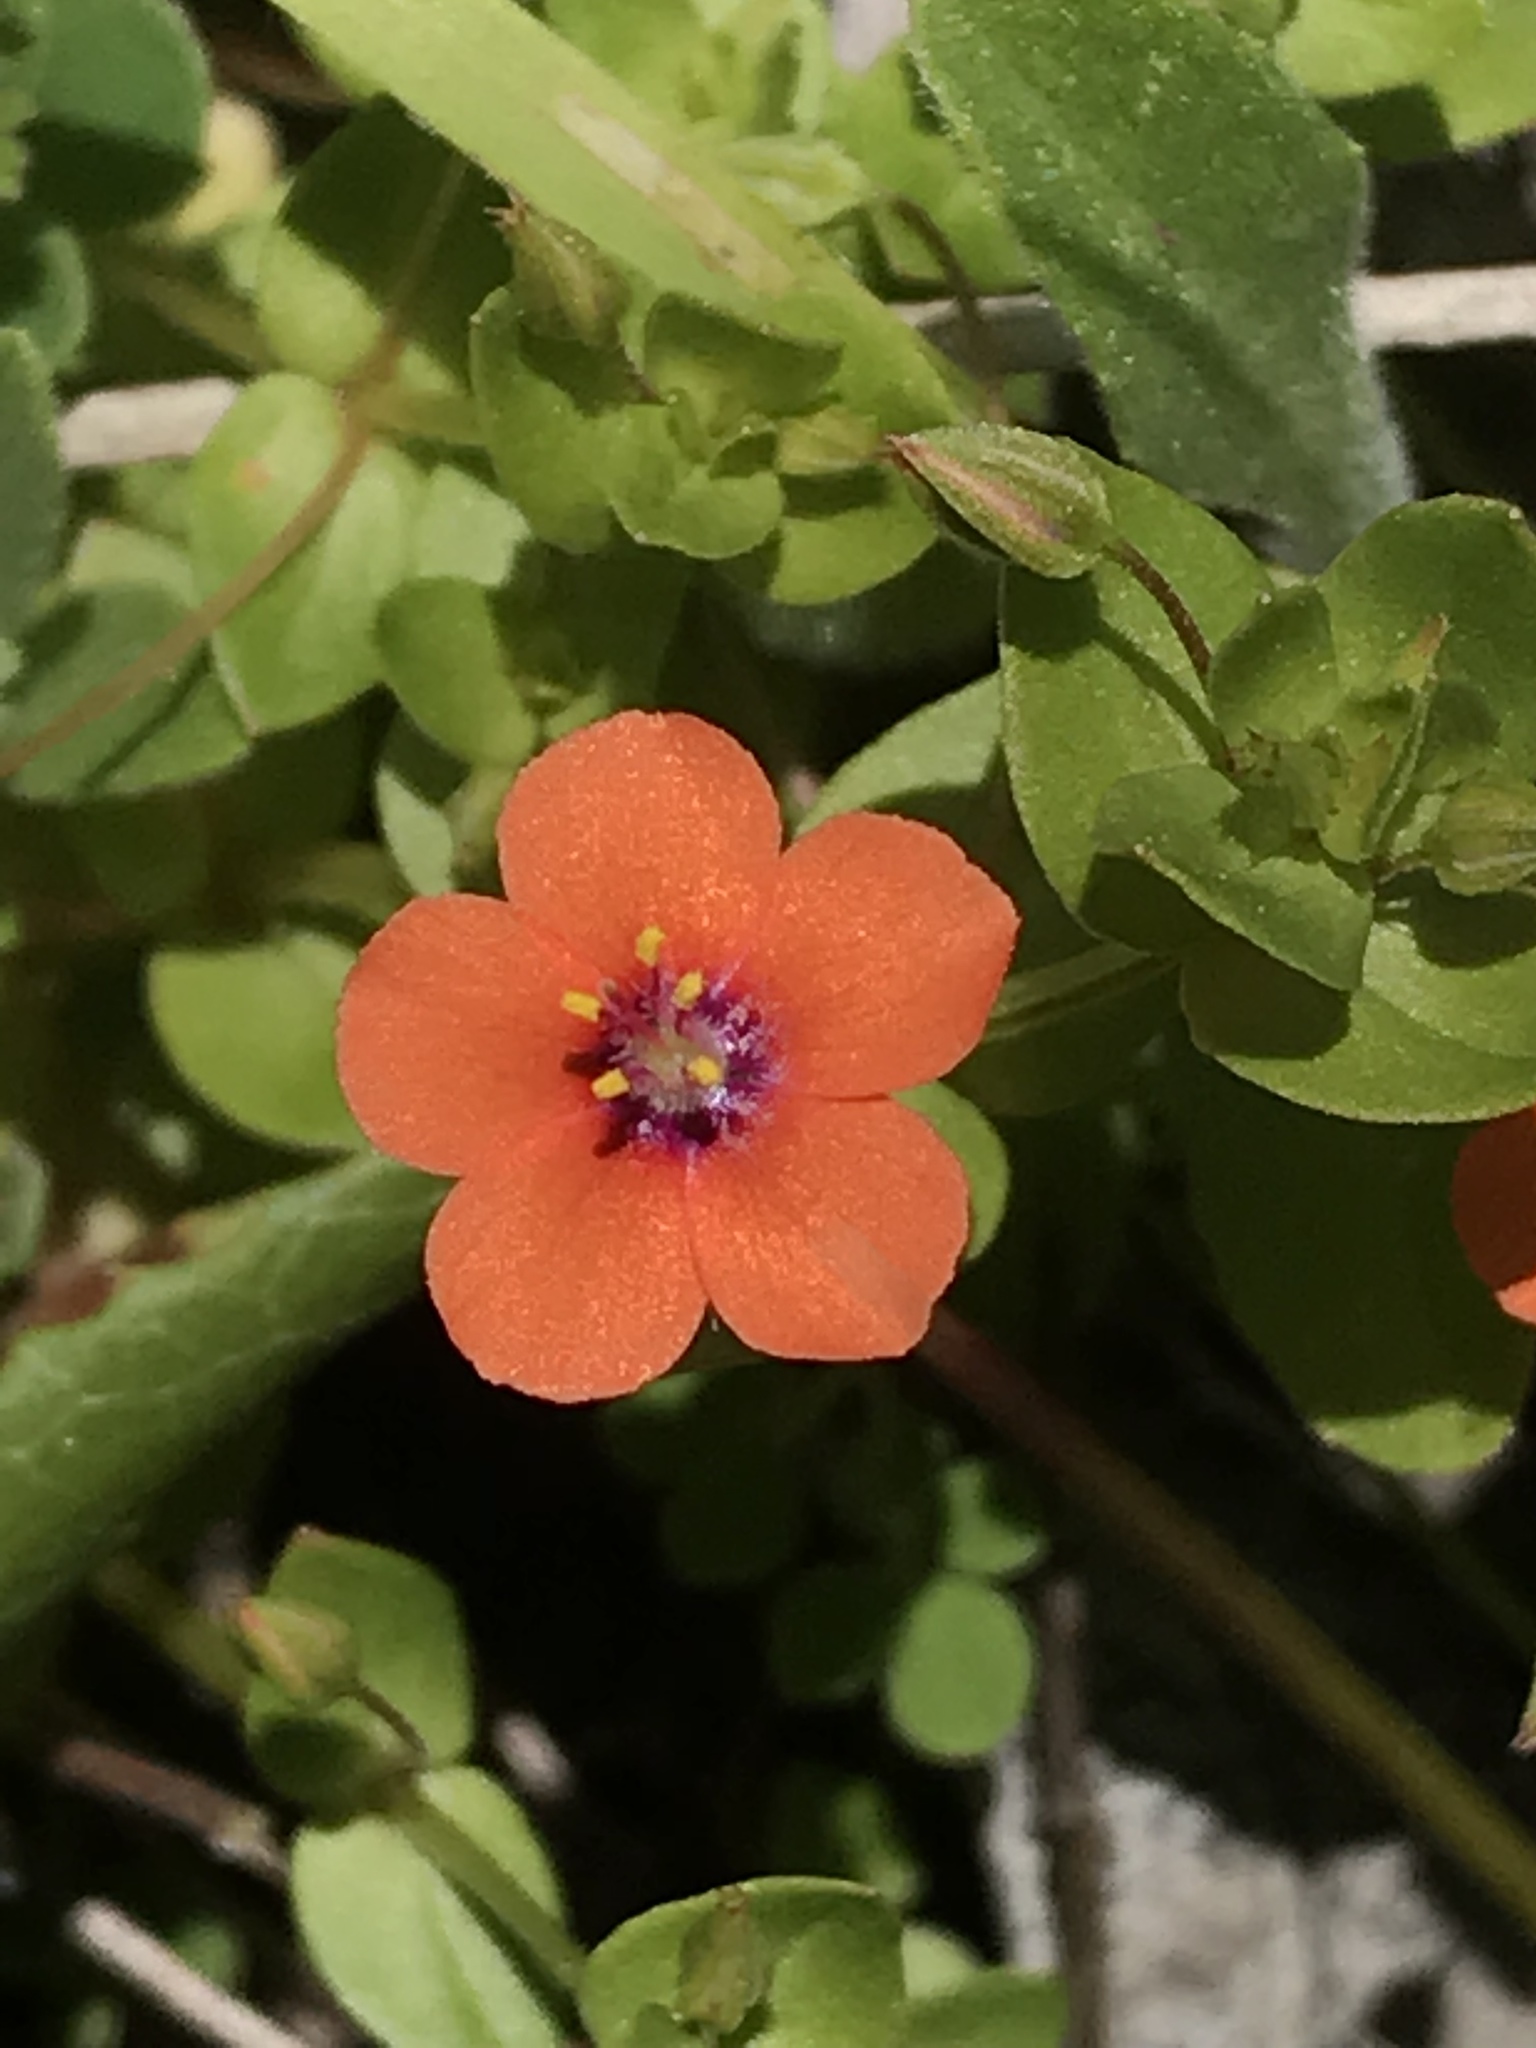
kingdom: Plantae
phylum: Tracheophyta
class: Magnoliopsida
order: Ericales
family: Primulaceae
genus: Lysimachia
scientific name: Lysimachia arvensis
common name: Scarlet pimpernel
